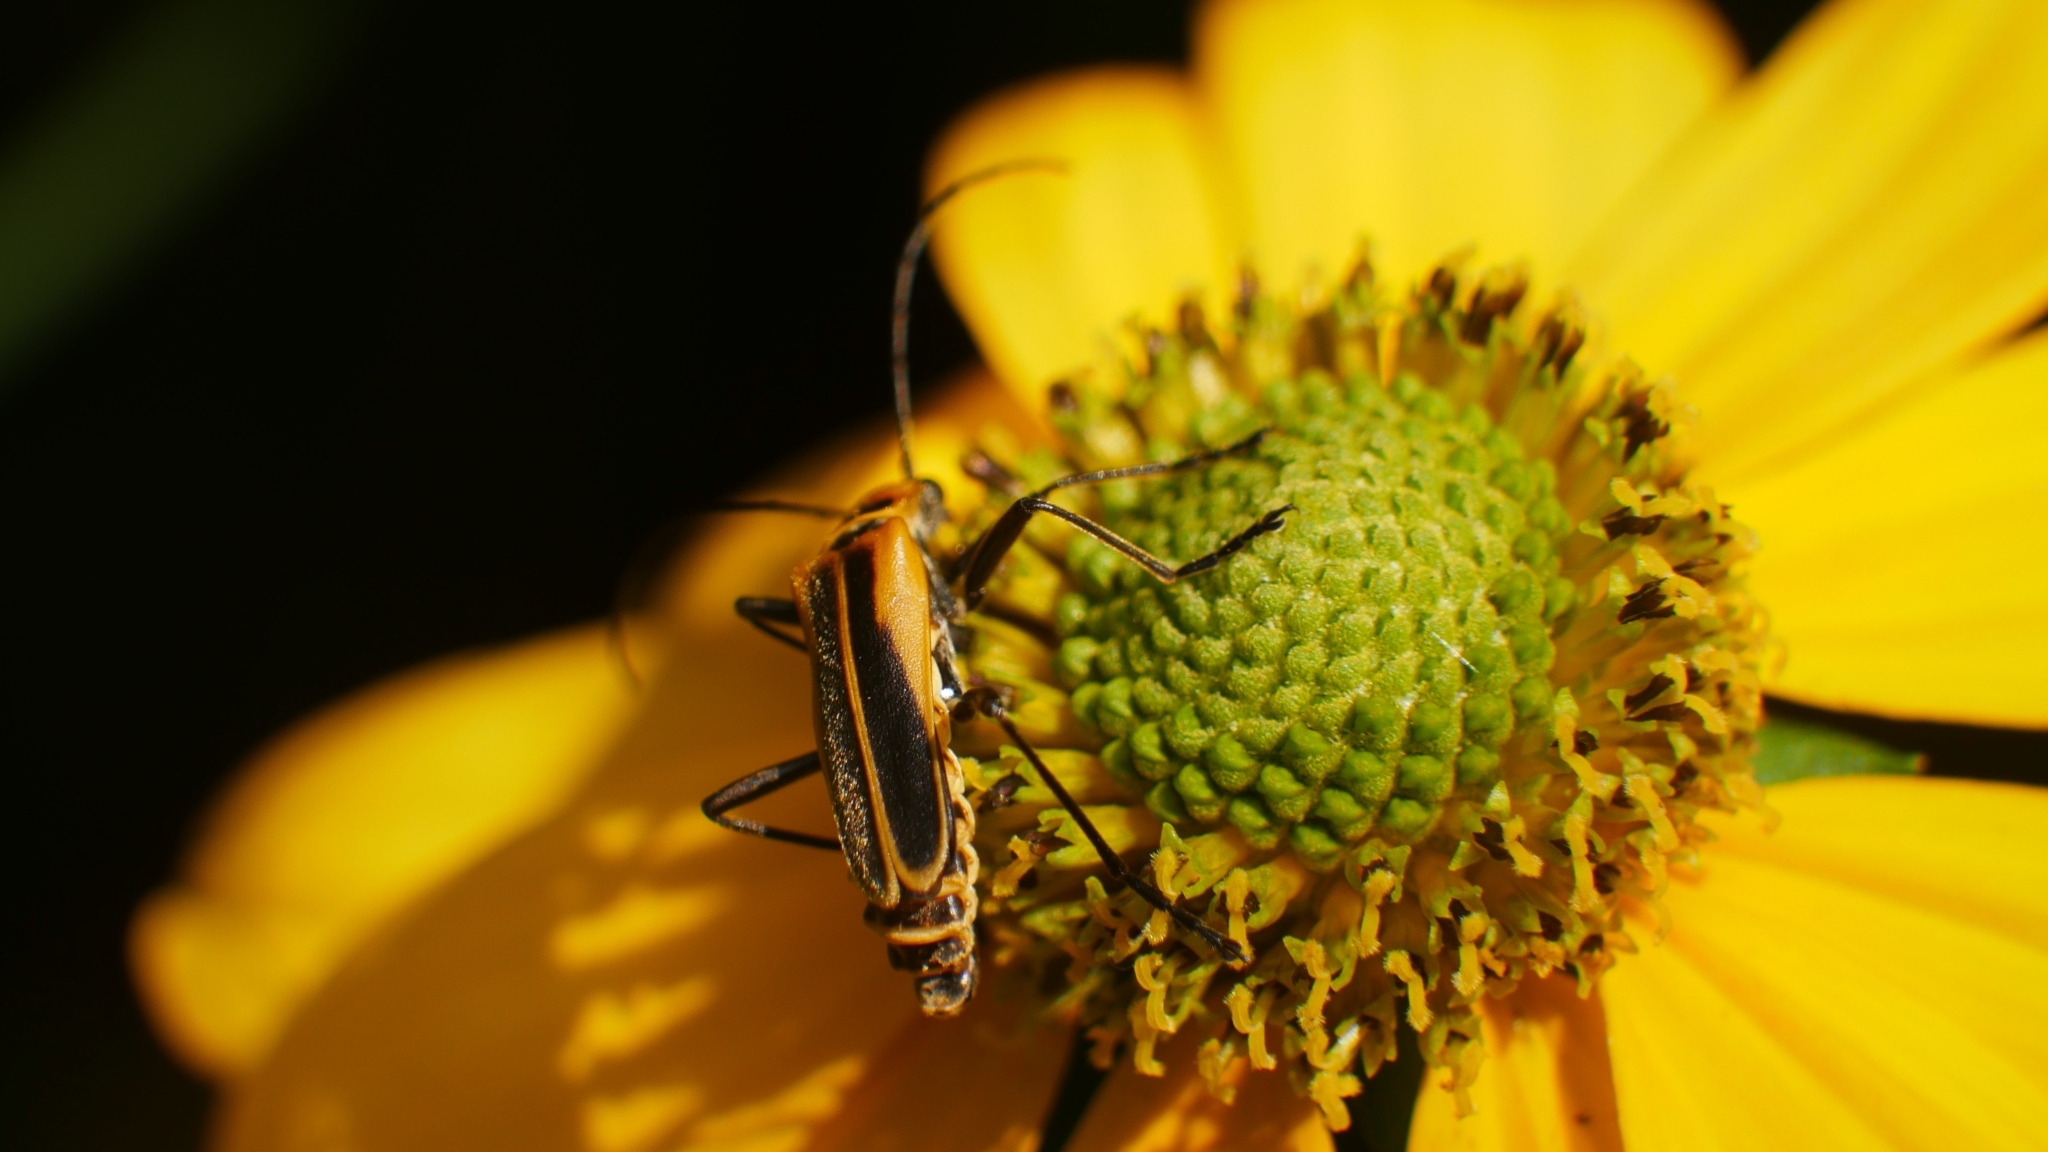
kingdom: Animalia
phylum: Arthropoda
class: Insecta
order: Coleoptera
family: Cantharidae
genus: Chauliognathus
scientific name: Chauliognathus pensylvanicus
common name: Goldenrod soldier beetle
